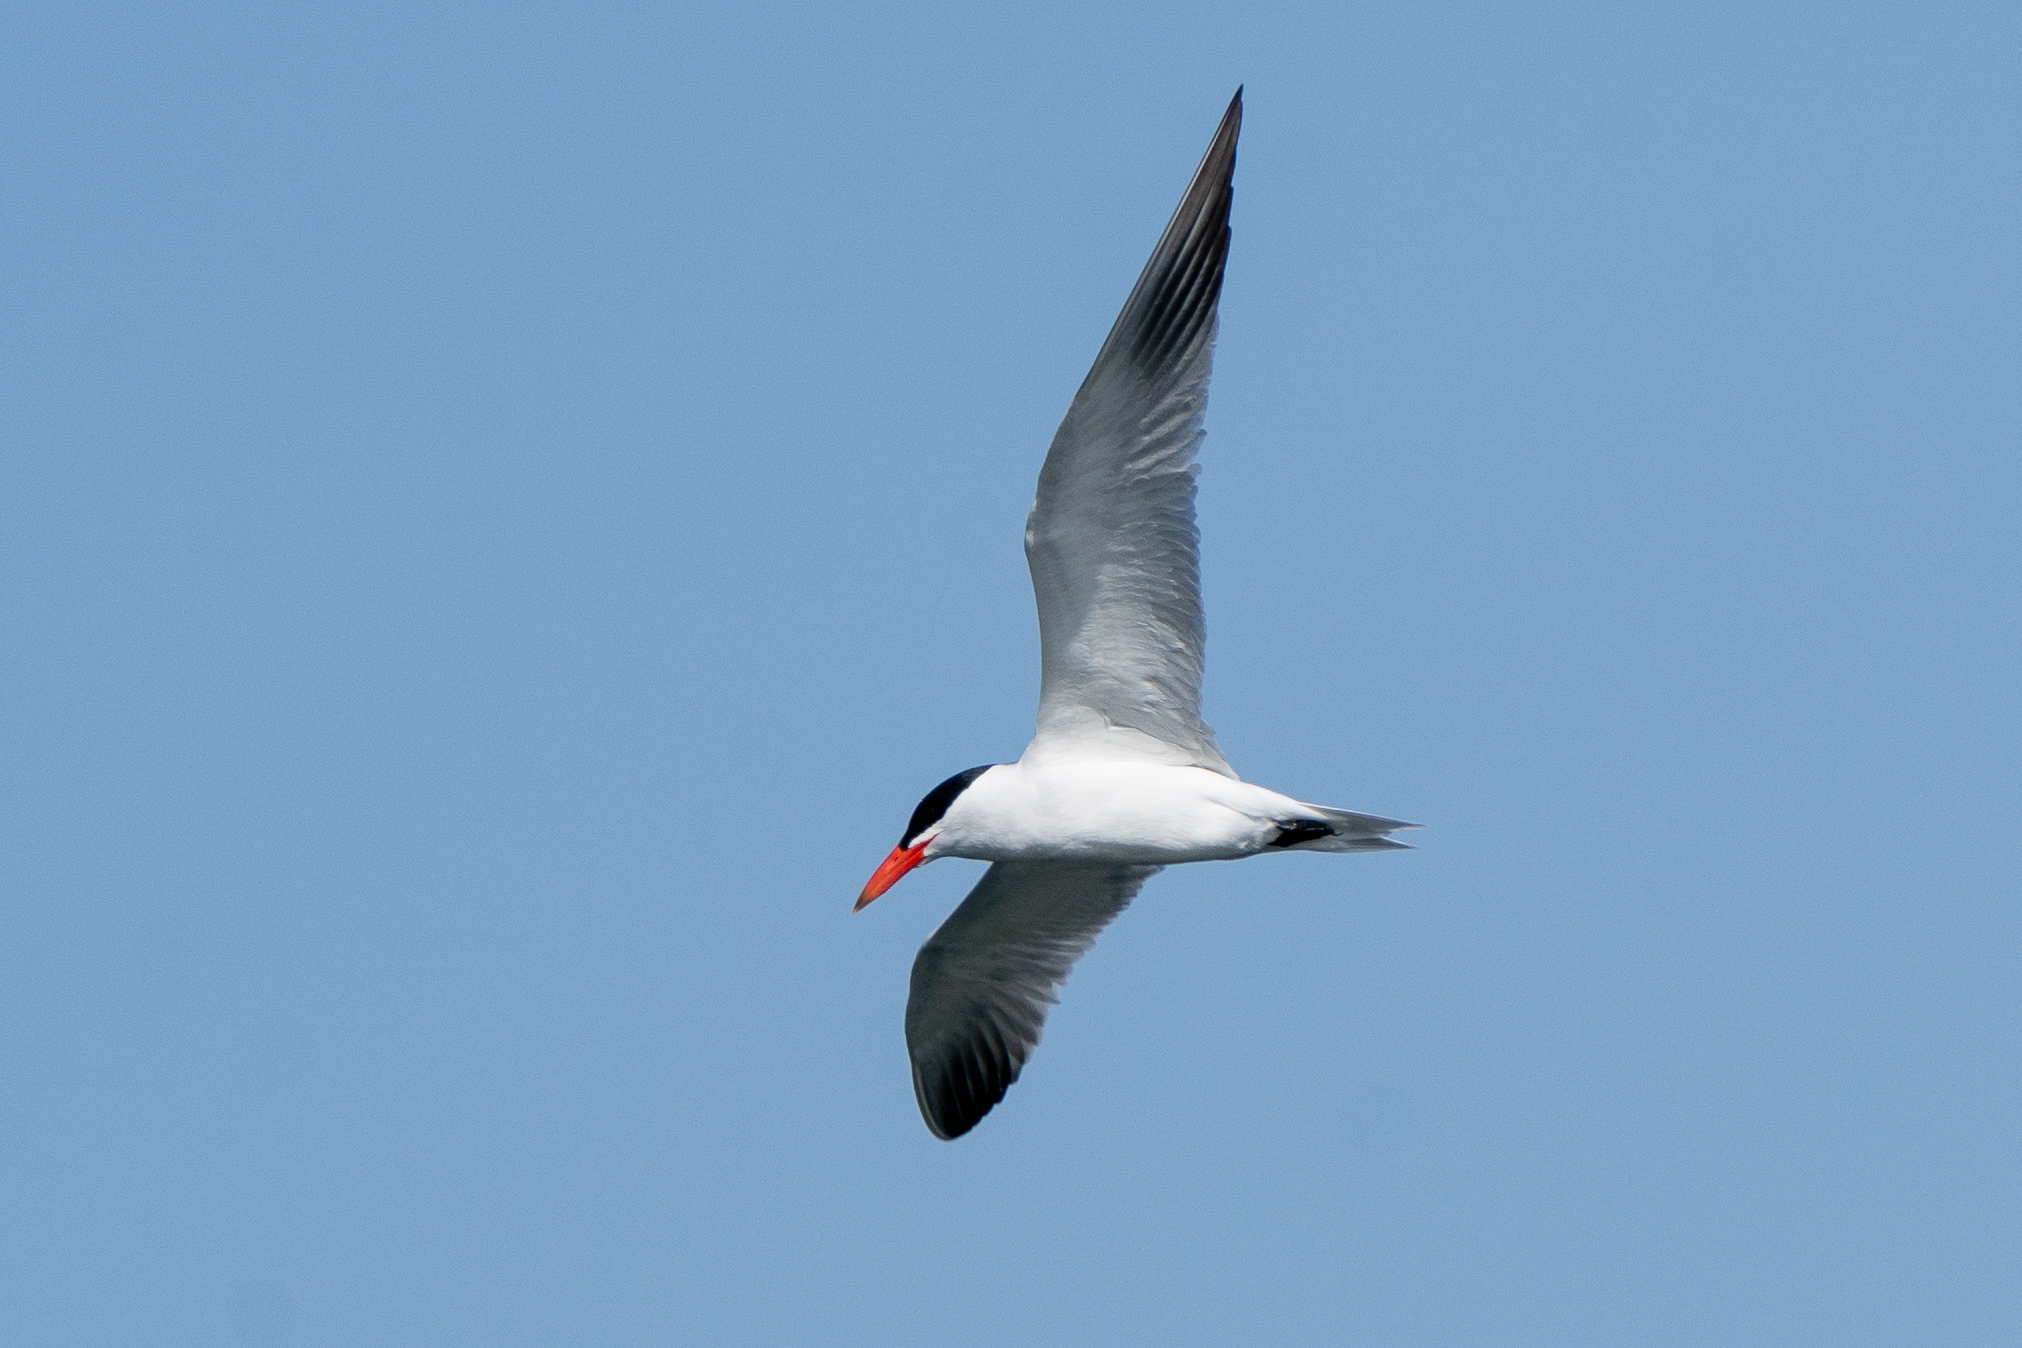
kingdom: Animalia
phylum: Chordata
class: Aves
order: Charadriiformes
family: Laridae
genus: Hydroprogne
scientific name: Hydroprogne caspia
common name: Caspian tern
